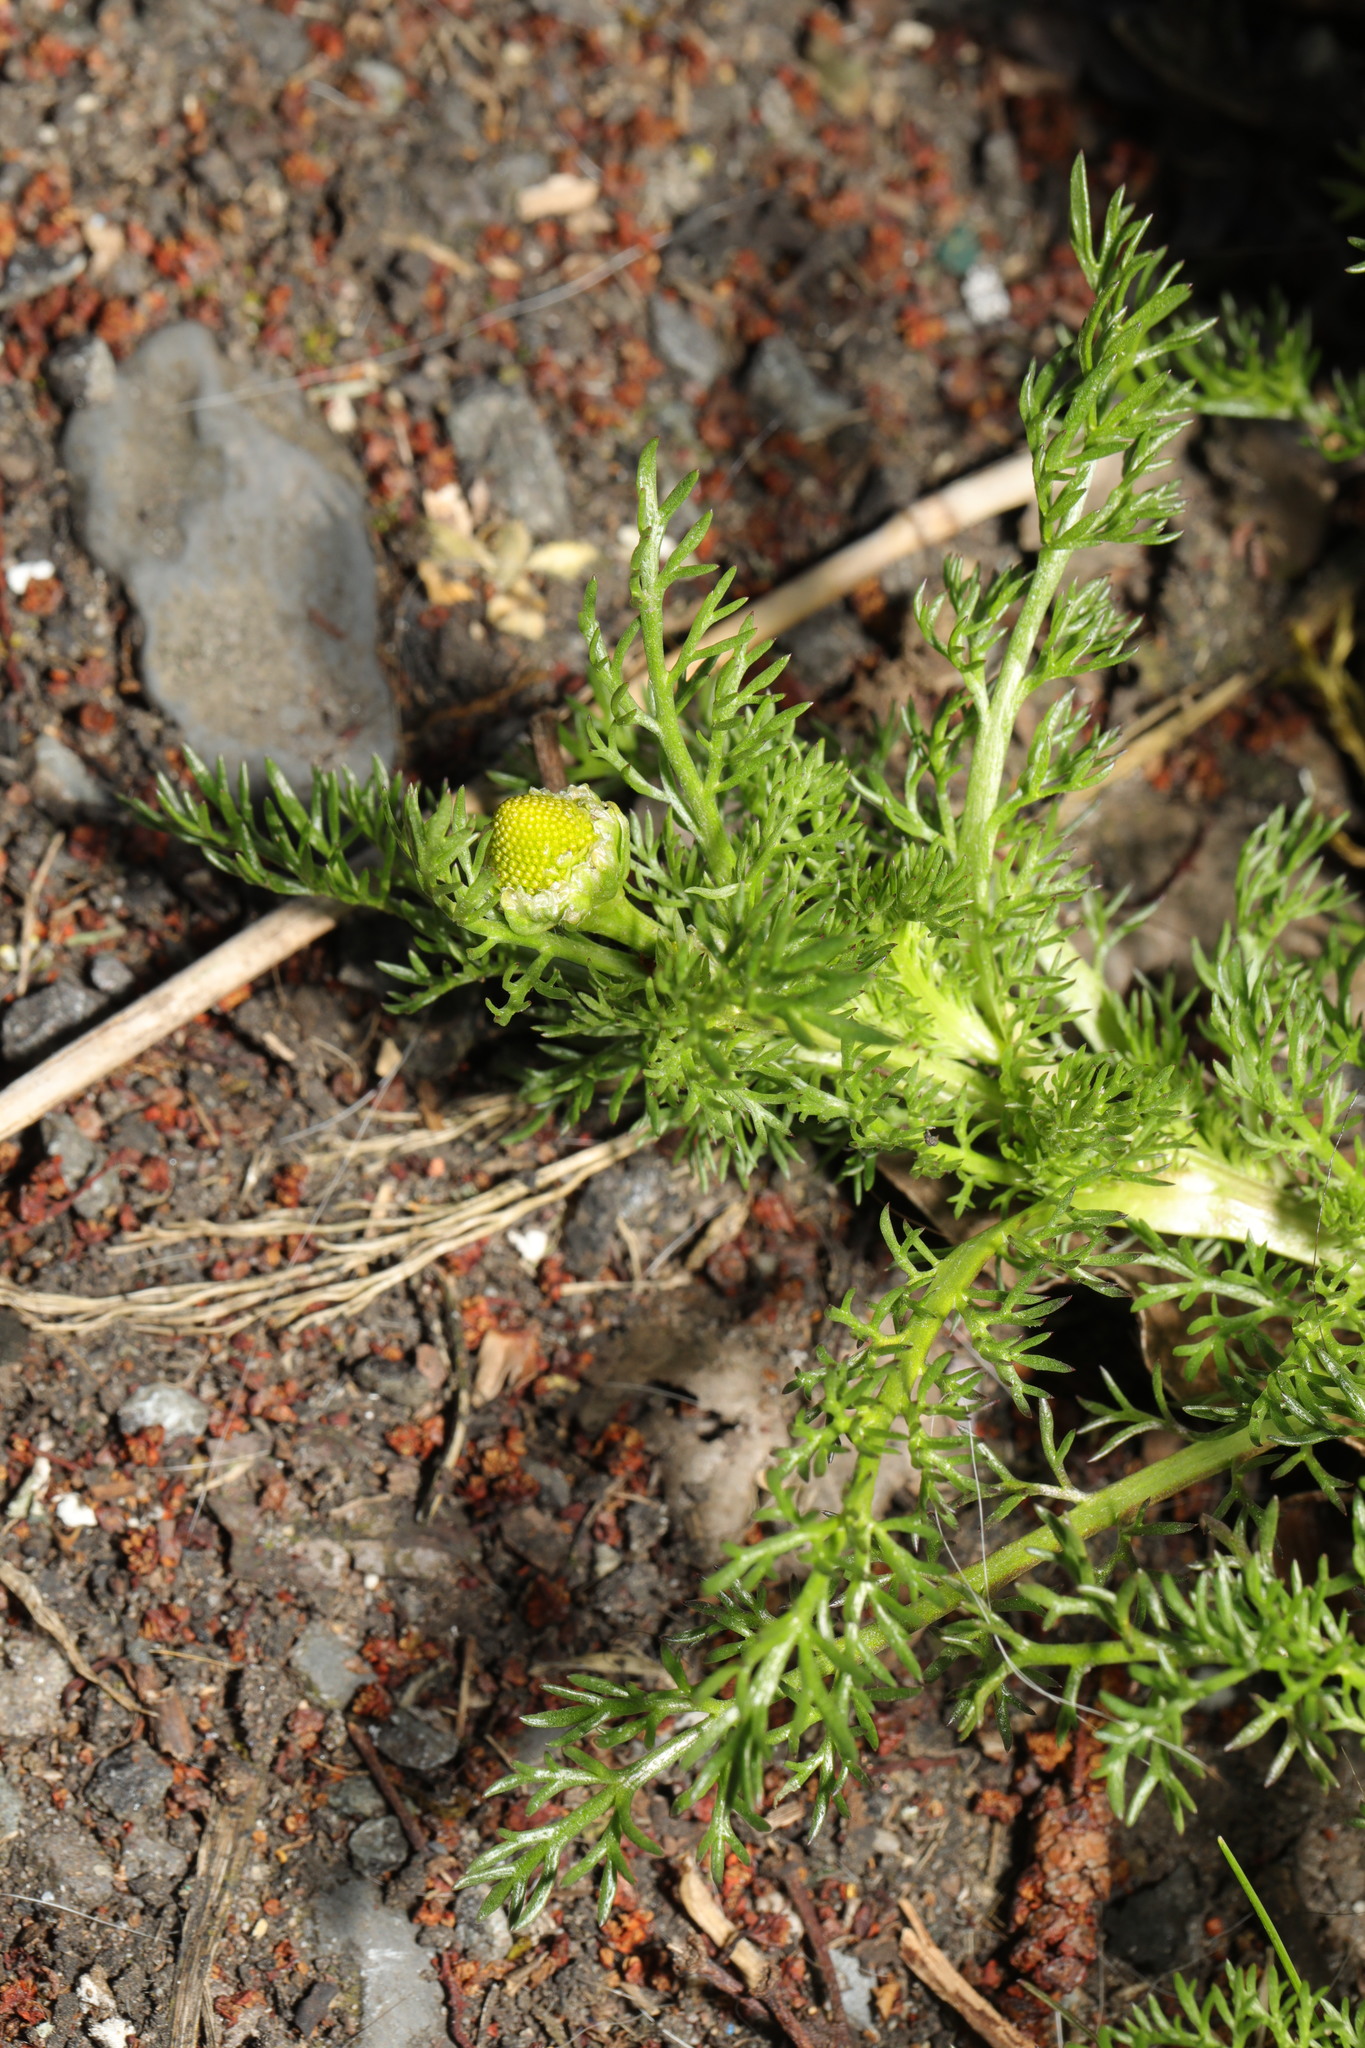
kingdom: Plantae
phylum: Tracheophyta
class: Magnoliopsida
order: Asterales
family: Asteraceae
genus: Matricaria
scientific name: Matricaria discoidea
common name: Disc mayweed
